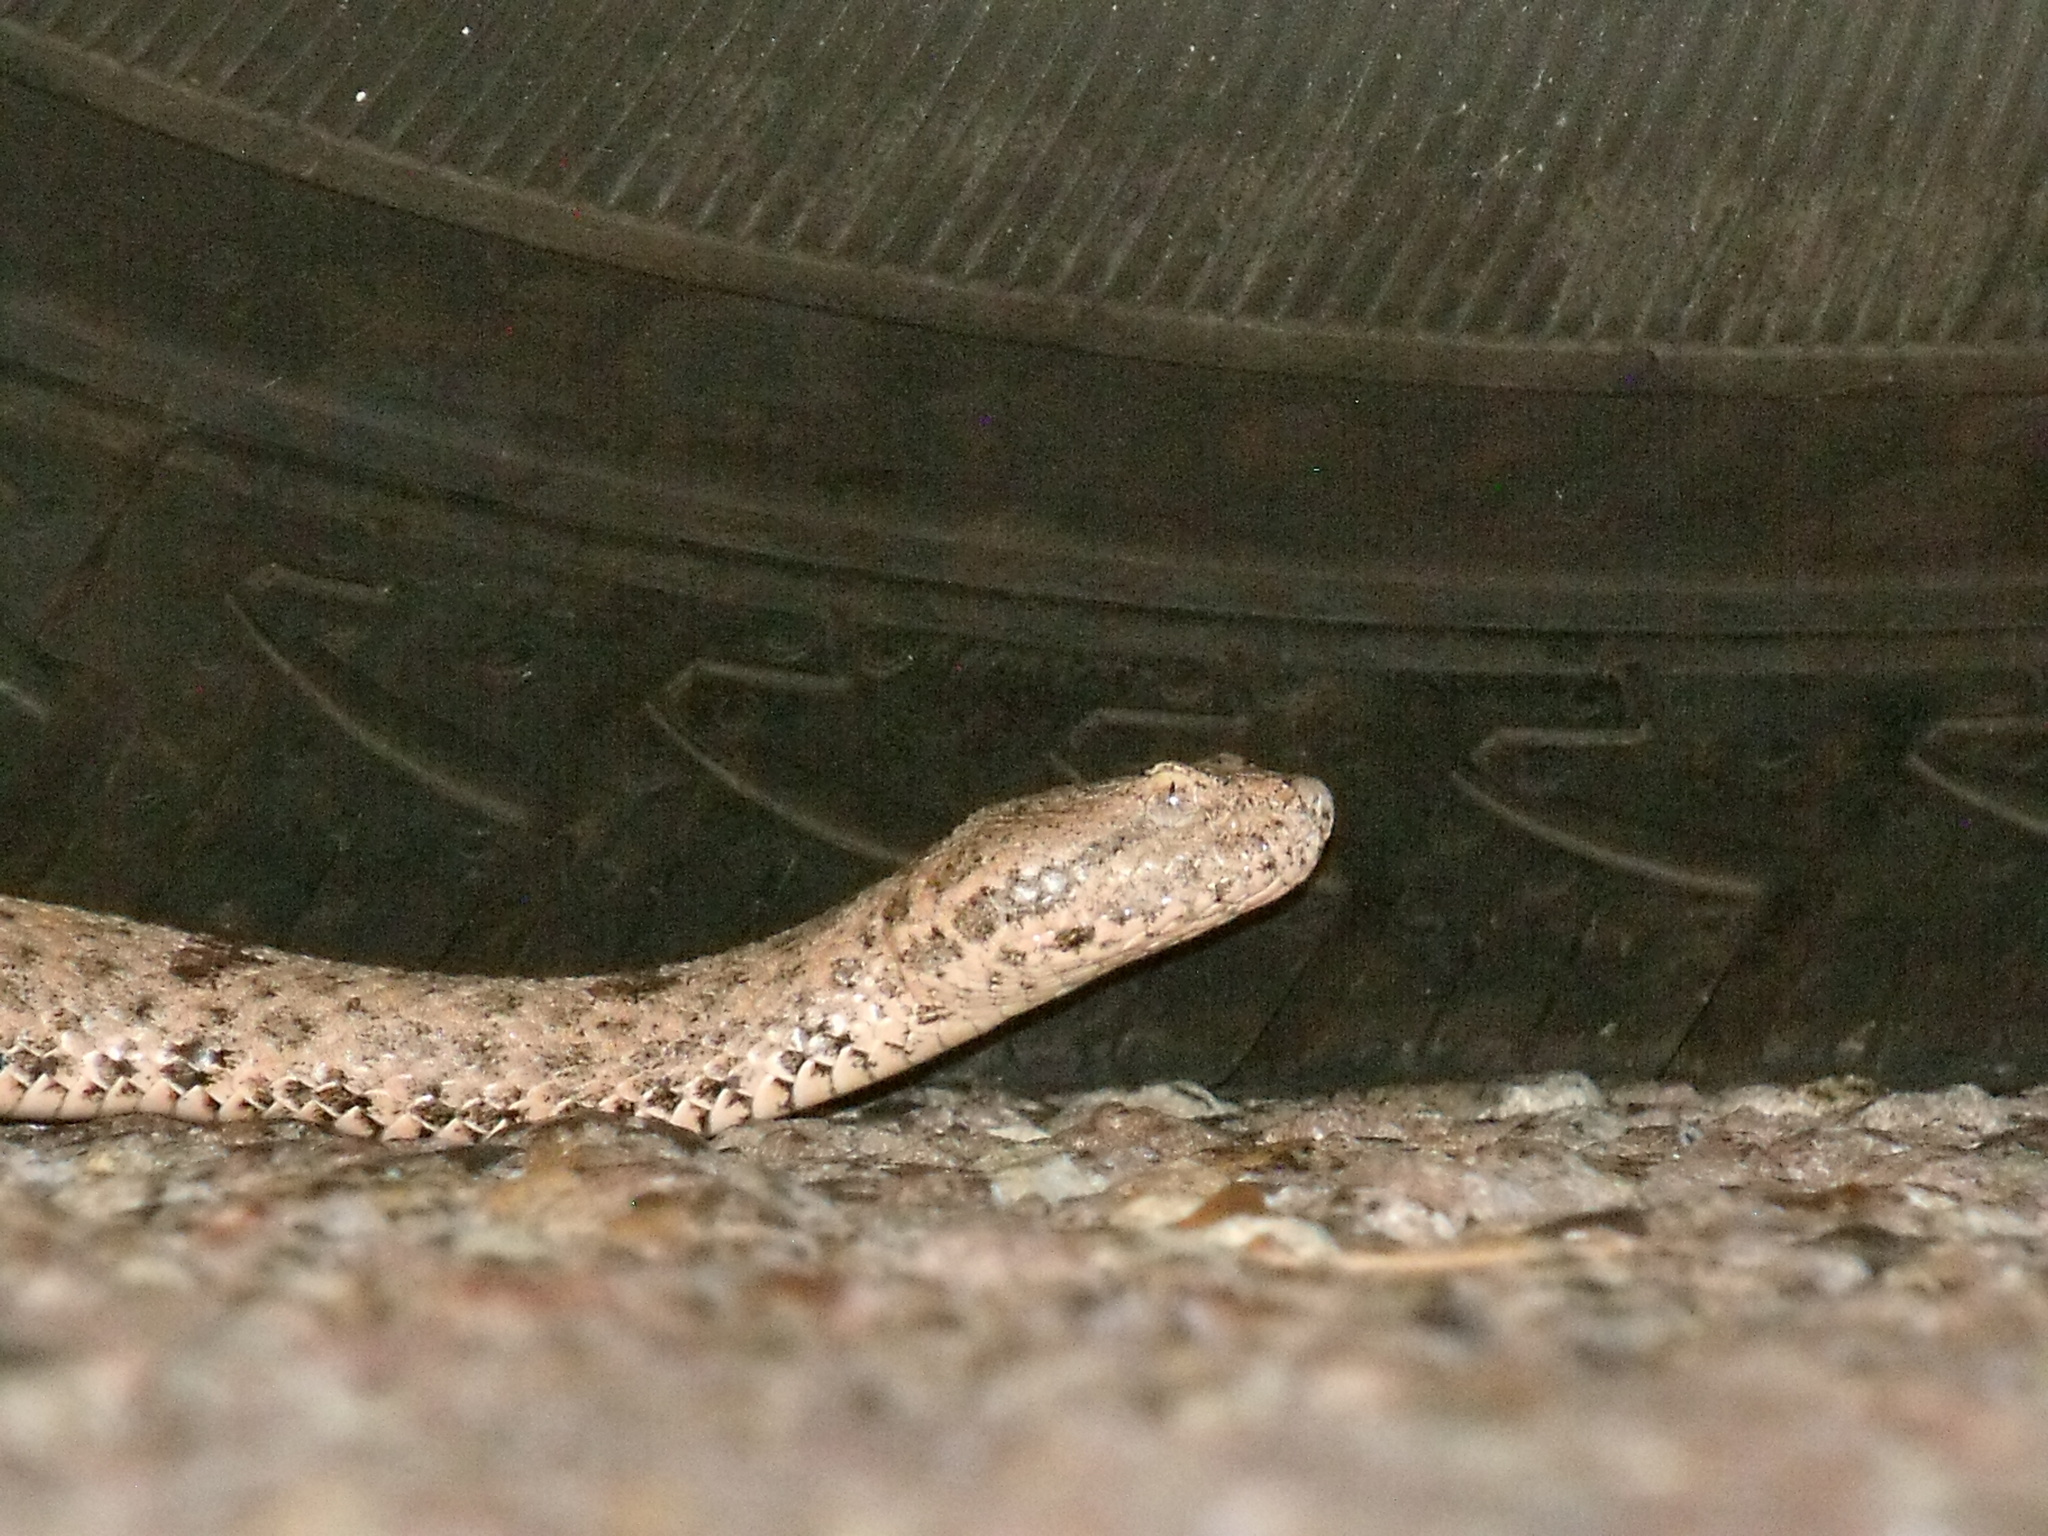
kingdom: Animalia
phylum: Chordata
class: Squamata
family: Viperidae
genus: Crotalus
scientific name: Crotalus lepidus
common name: Rock rattlesnake
